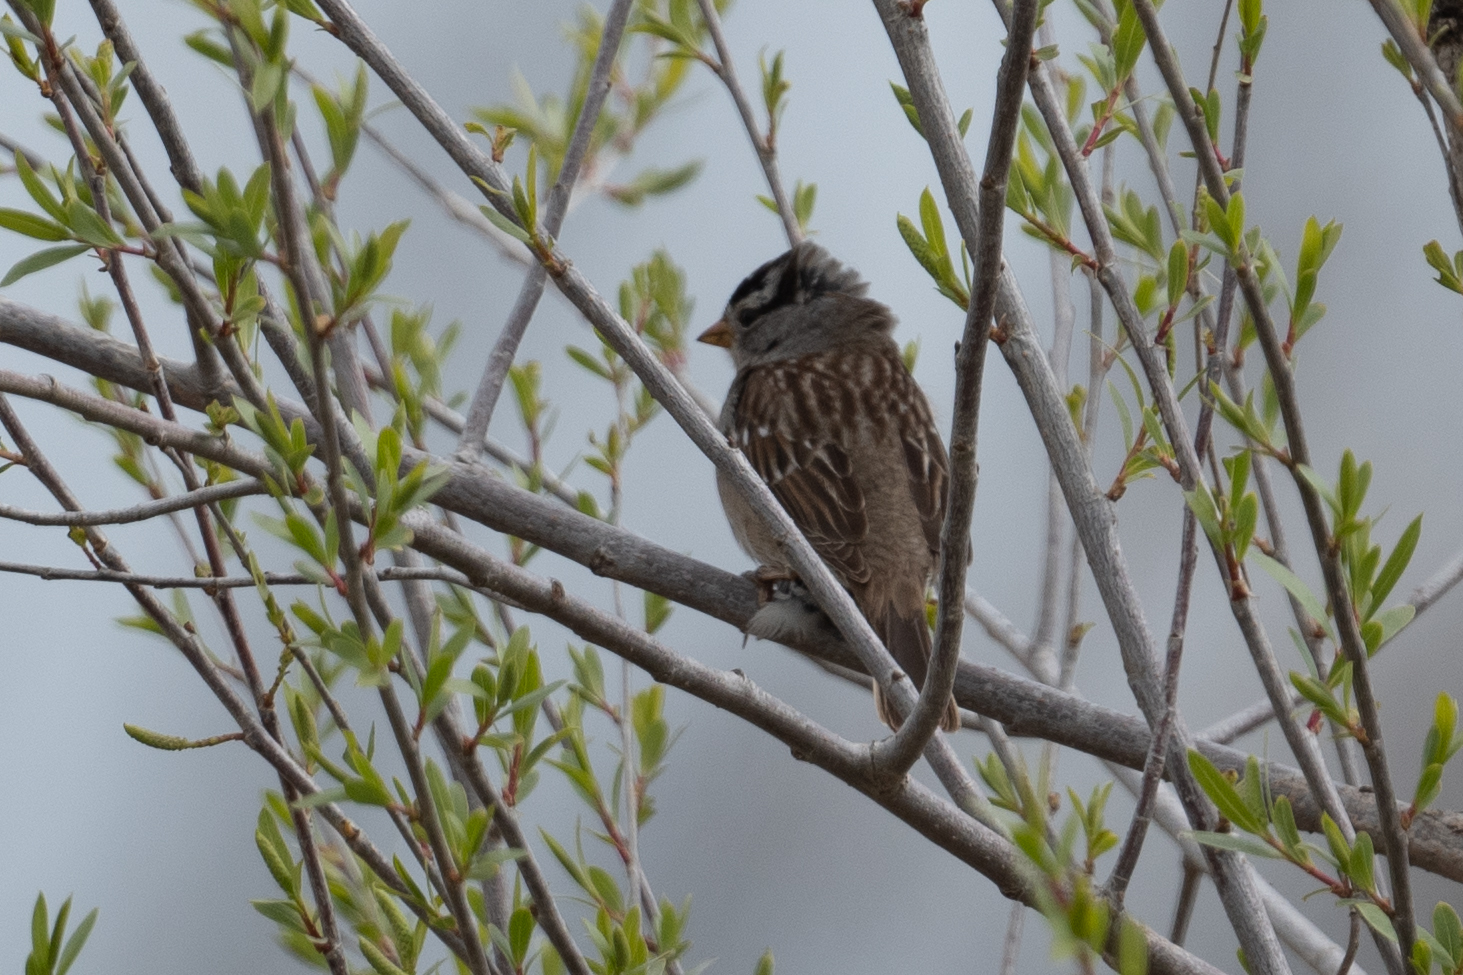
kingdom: Animalia
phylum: Chordata
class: Aves
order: Passeriformes
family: Passerellidae
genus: Zonotrichia
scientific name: Zonotrichia leucophrys
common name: White-crowned sparrow
